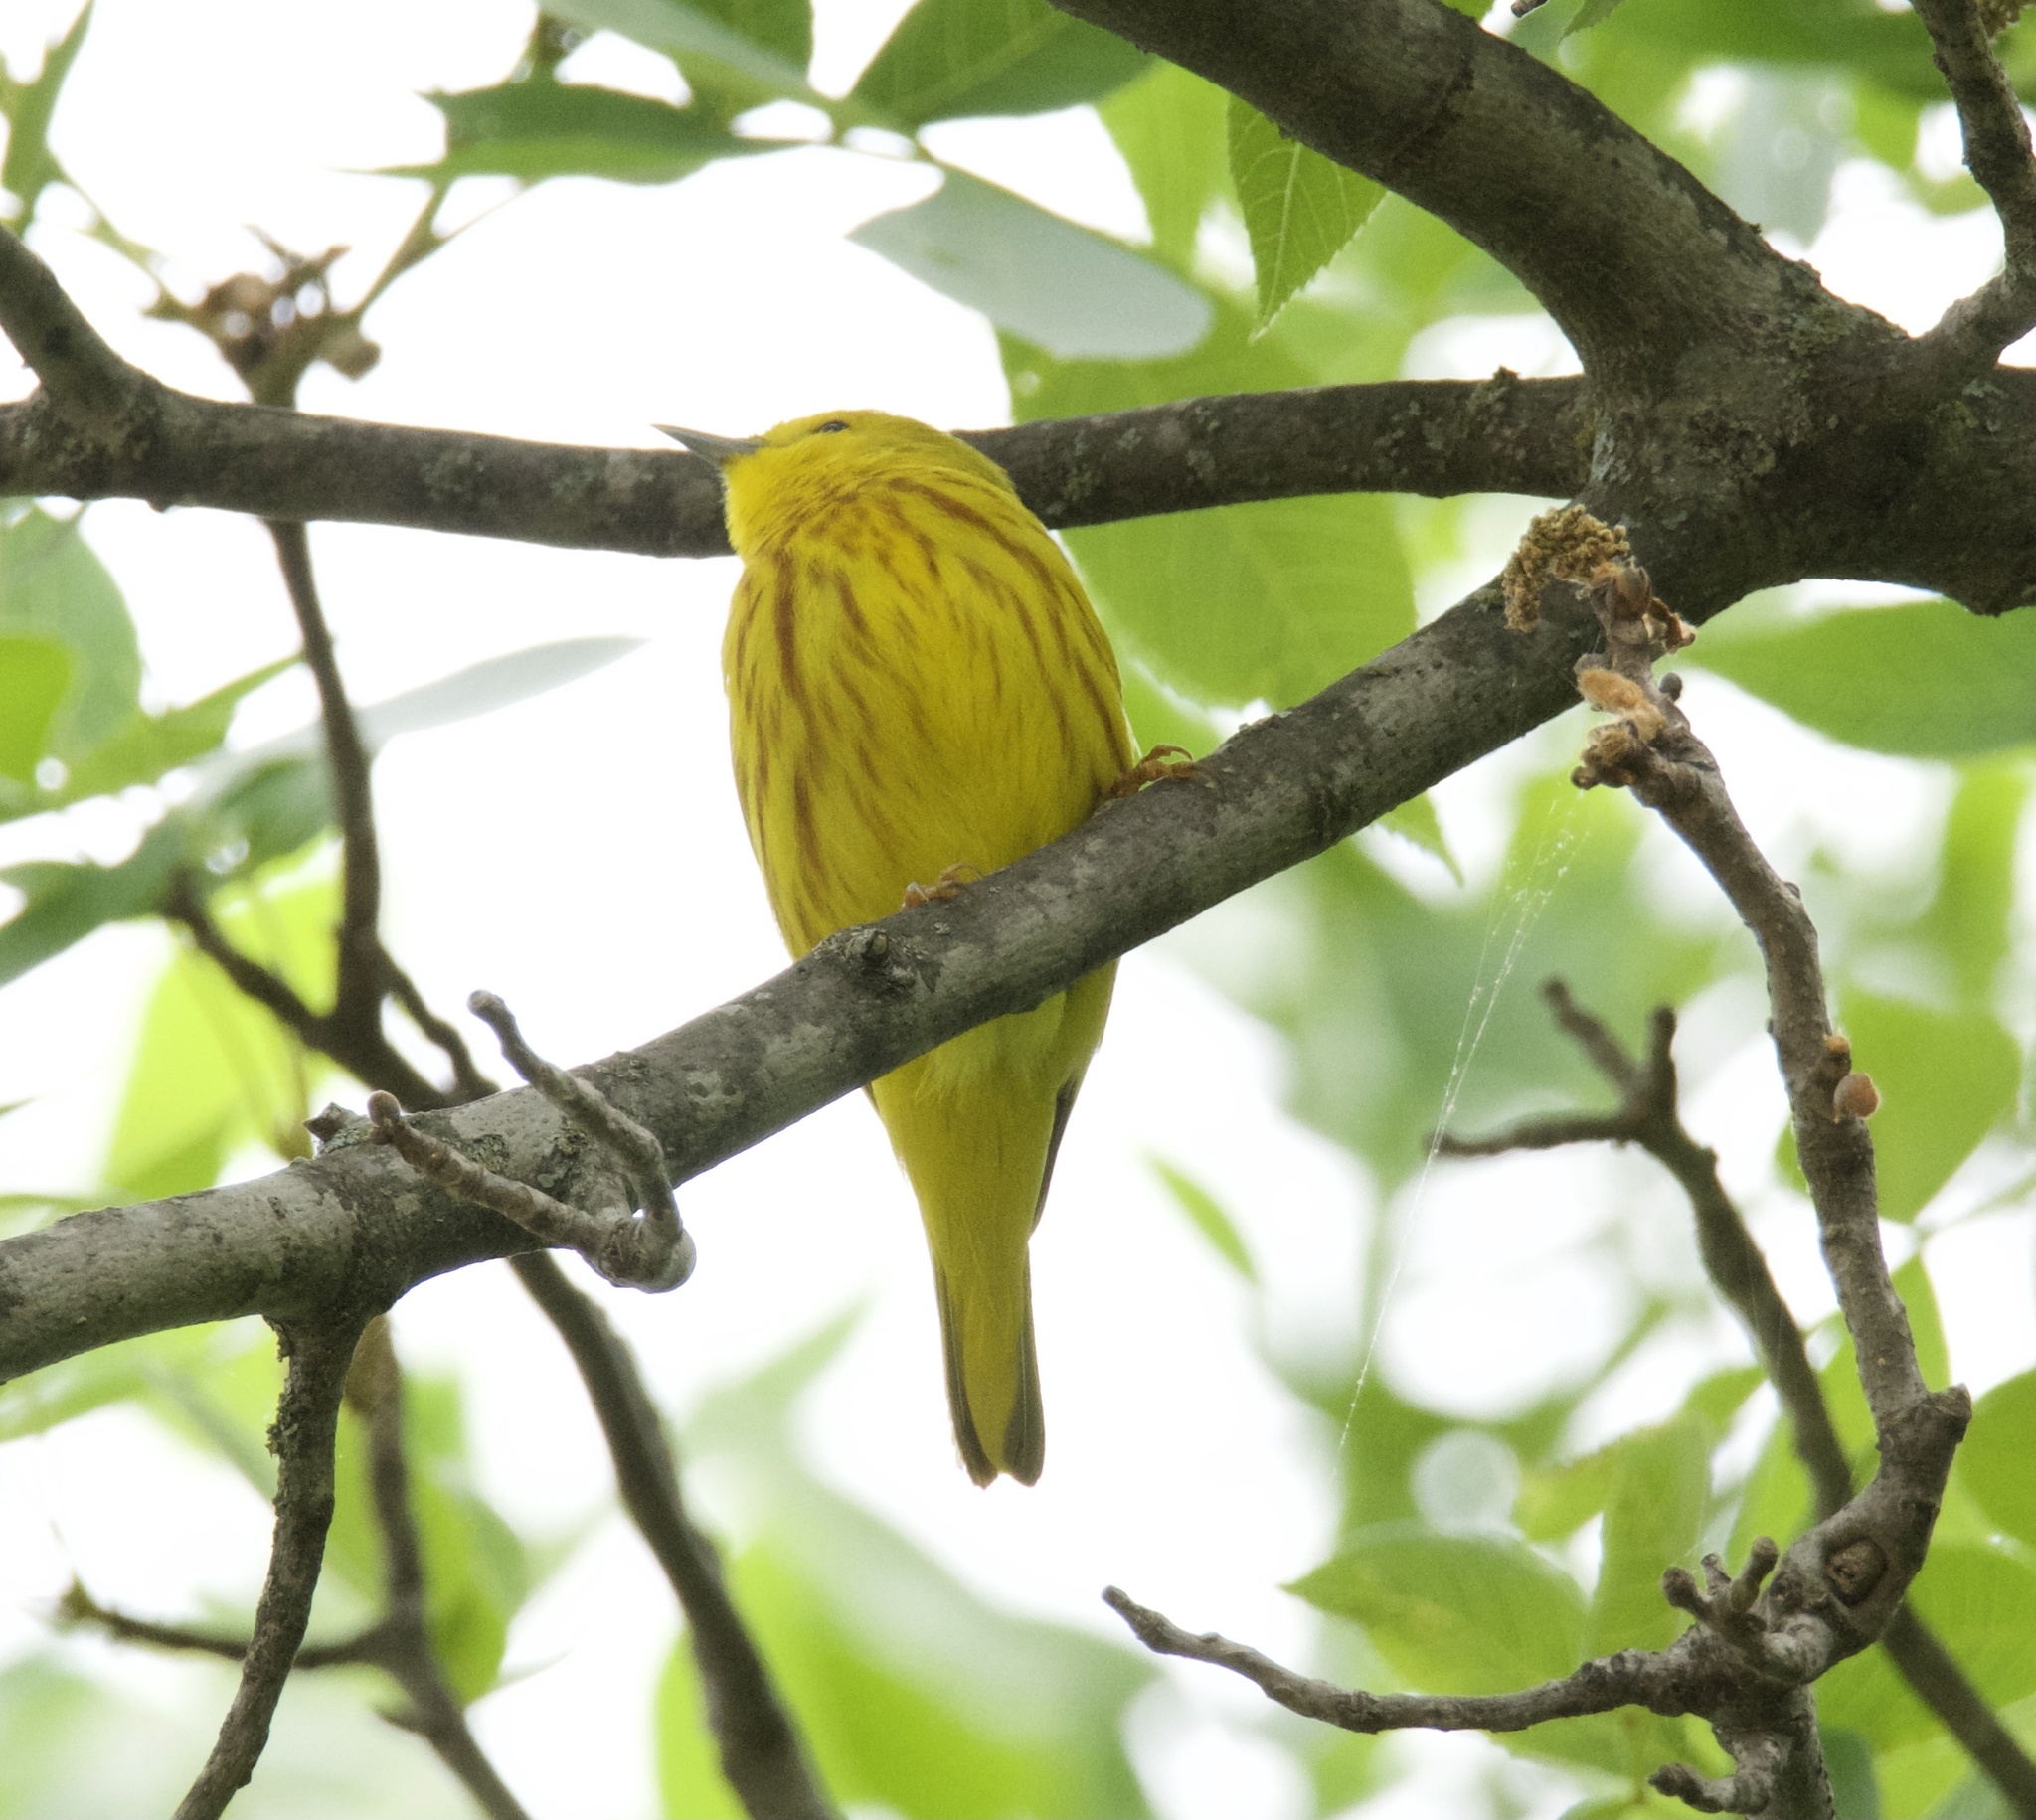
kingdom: Animalia
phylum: Chordata
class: Aves
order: Passeriformes
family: Parulidae
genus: Setophaga
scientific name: Setophaga petechia
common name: Yellow warbler
